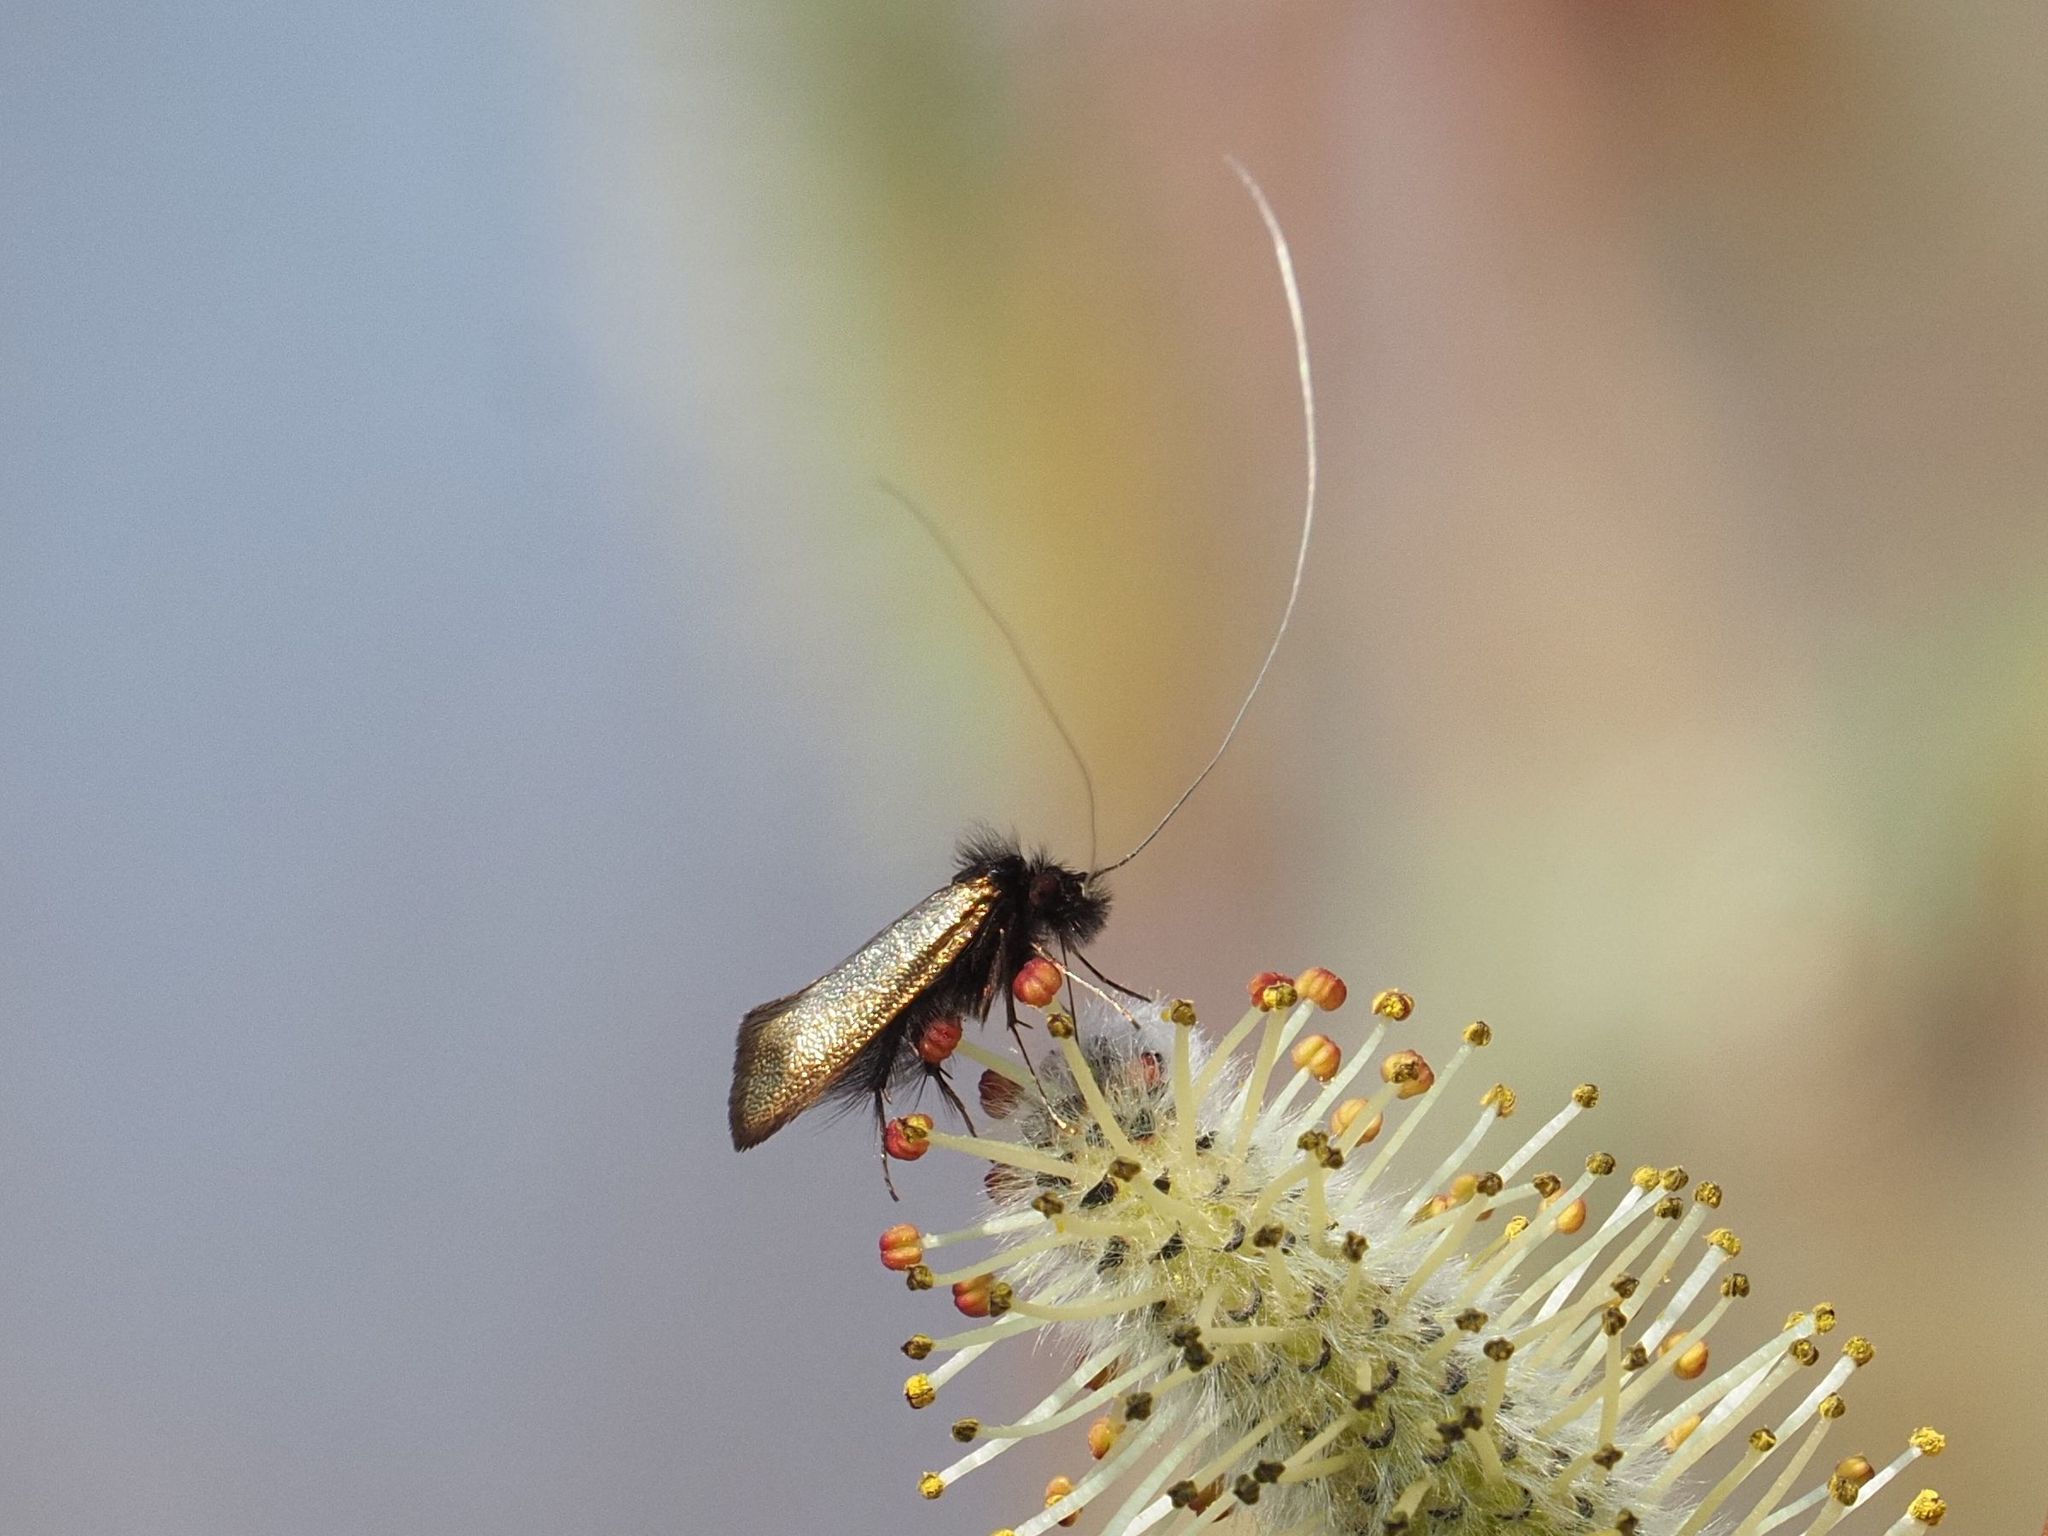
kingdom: Animalia
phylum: Arthropoda
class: Insecta
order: Lepidoptera
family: Adelidae
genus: Adela
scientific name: Adela cuprella
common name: Early long-horn
